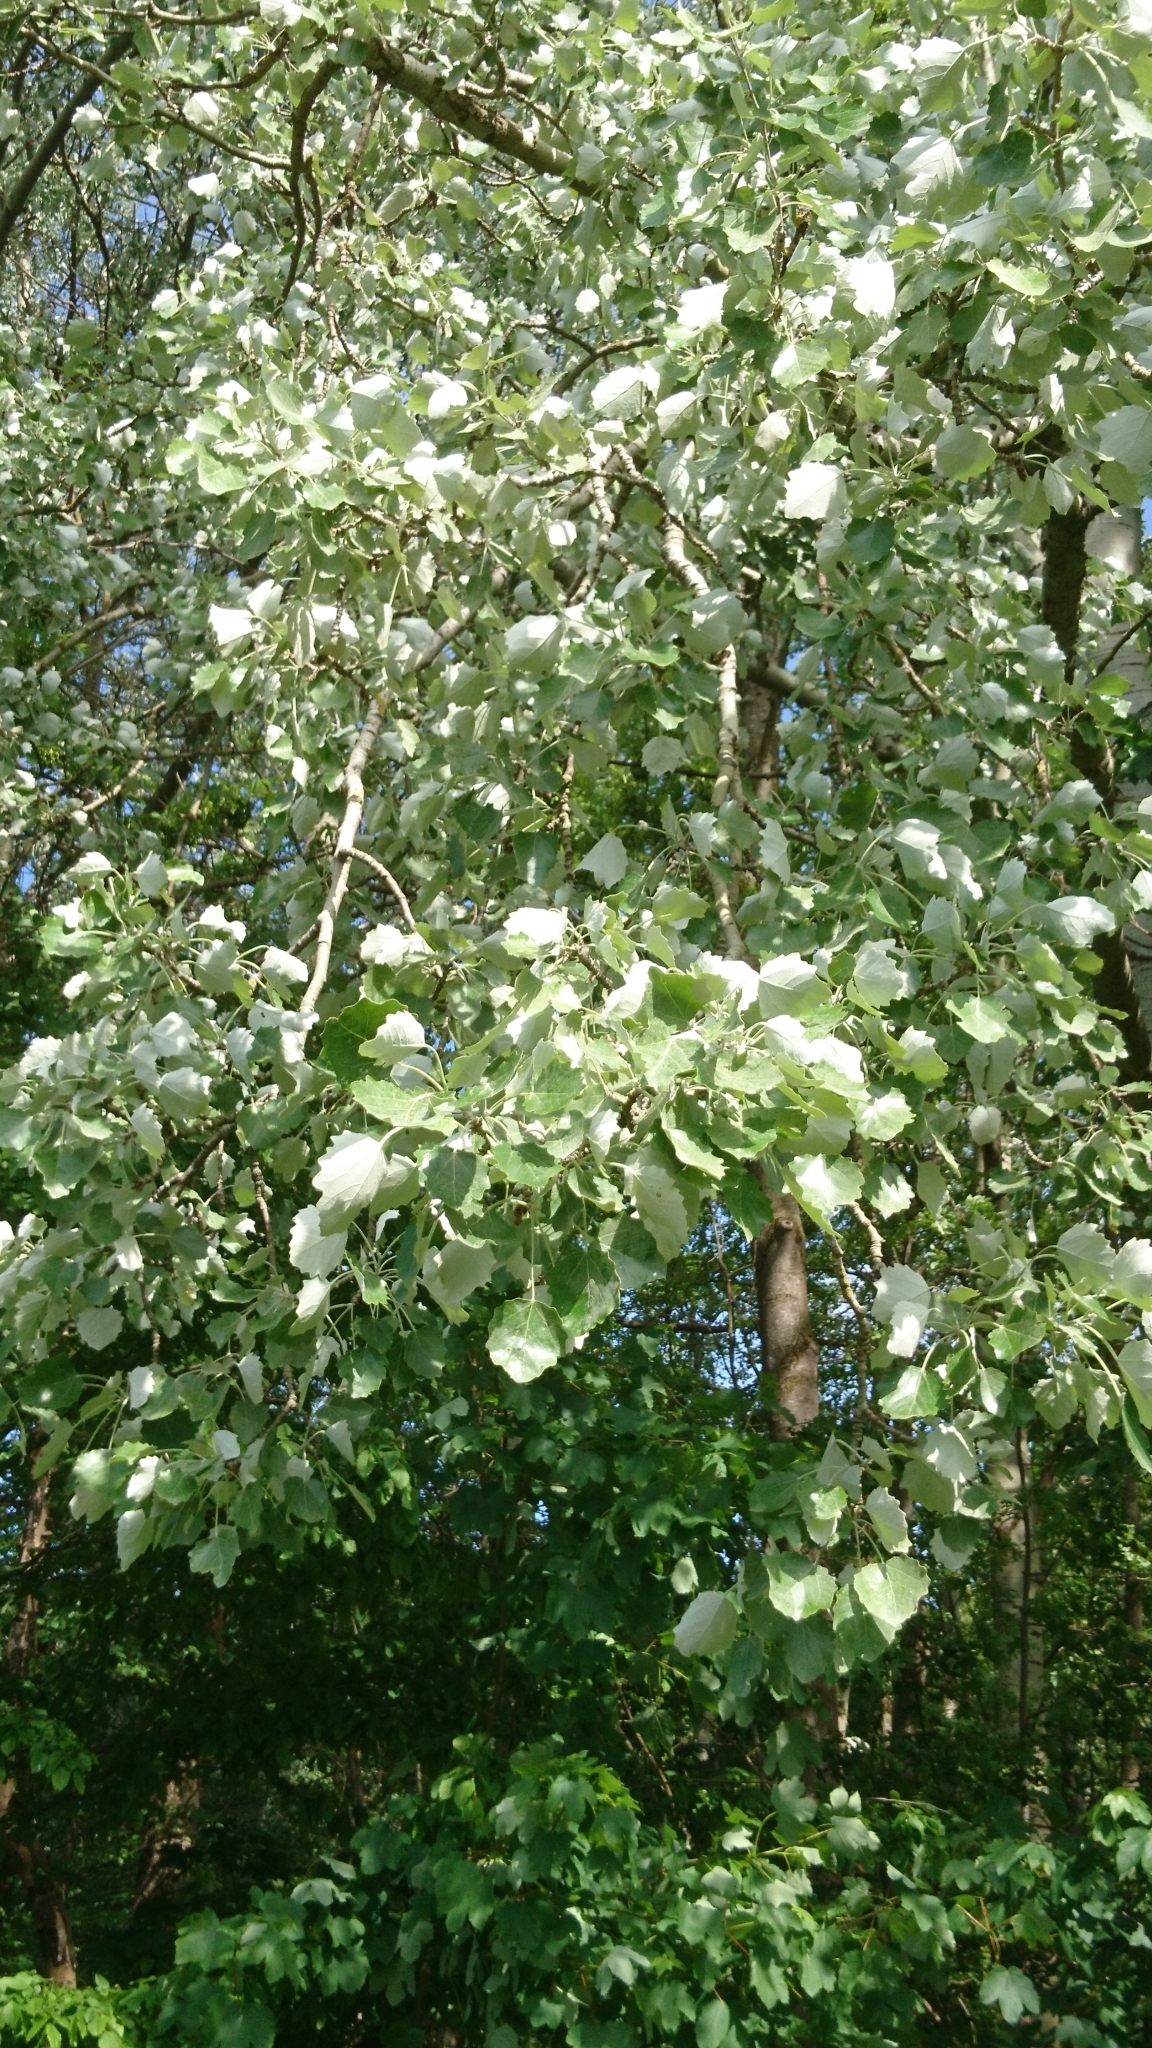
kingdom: Plantae
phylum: Tracheophyta
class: Magnoliopsida
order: Malpighiales
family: Salicaceae
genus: Populus
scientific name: Populus alba
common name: White poplar
